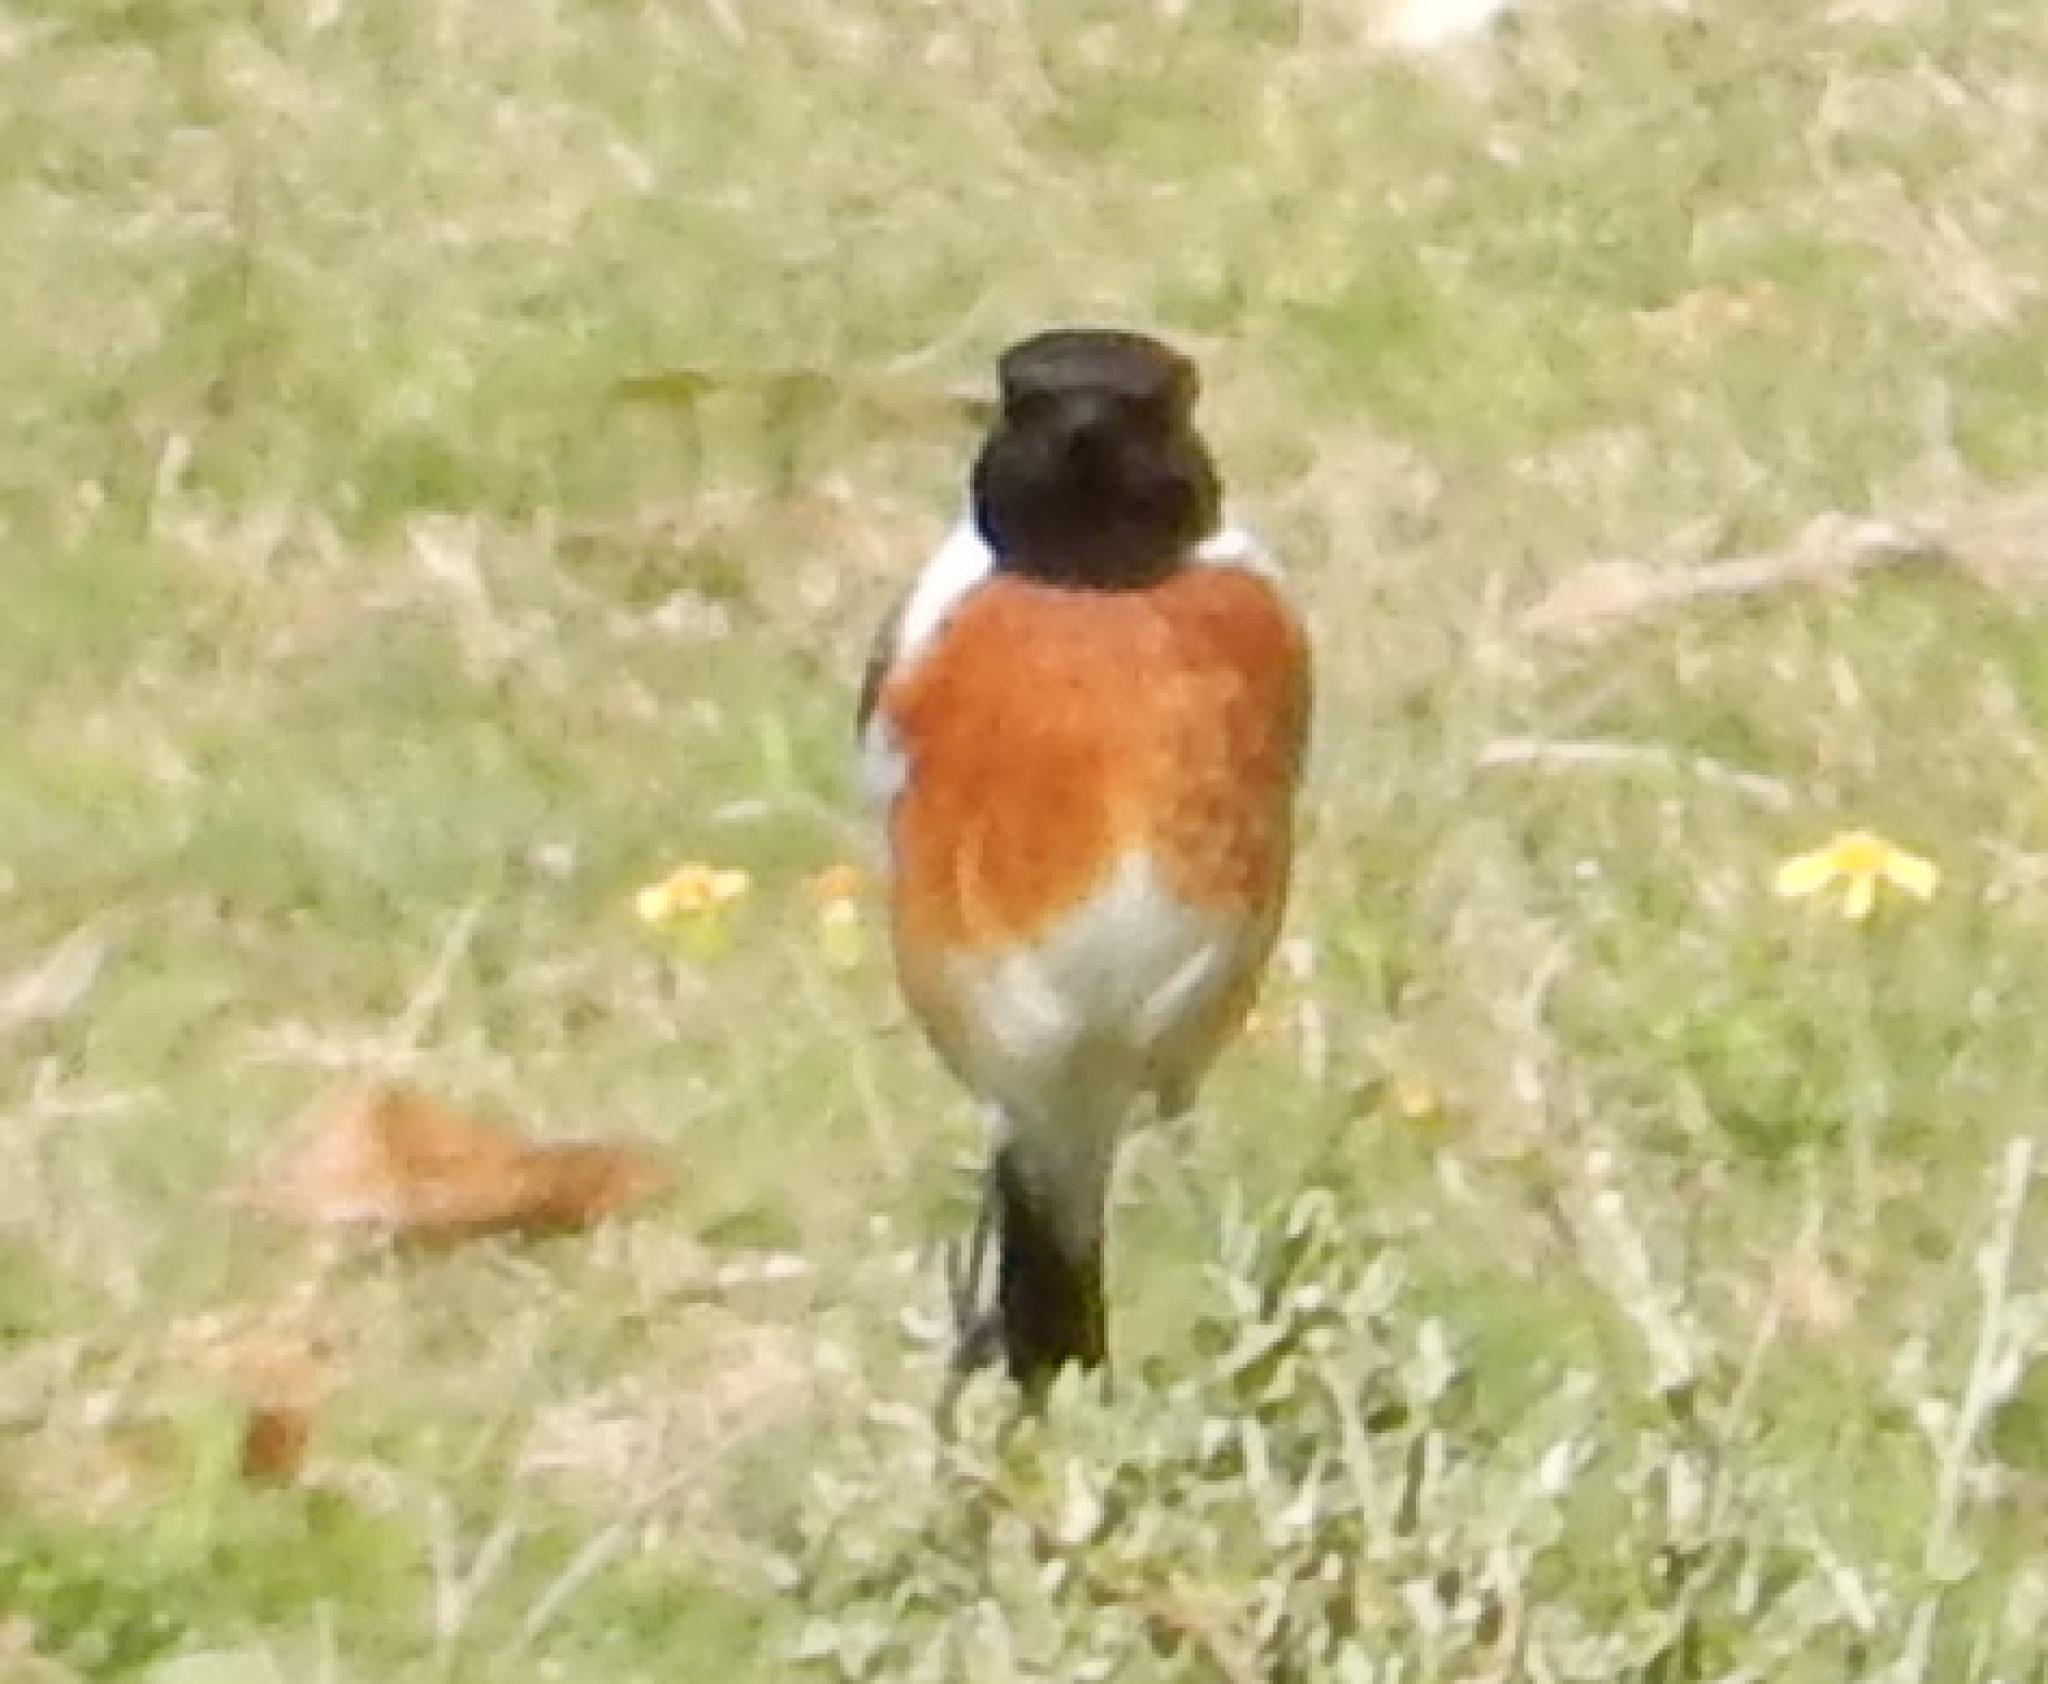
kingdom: Animalia
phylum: Chordata
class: Aves
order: Passeriformes
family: Muscicapidae
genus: Saxicola
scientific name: Saxicola torquatus
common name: African stonechat
